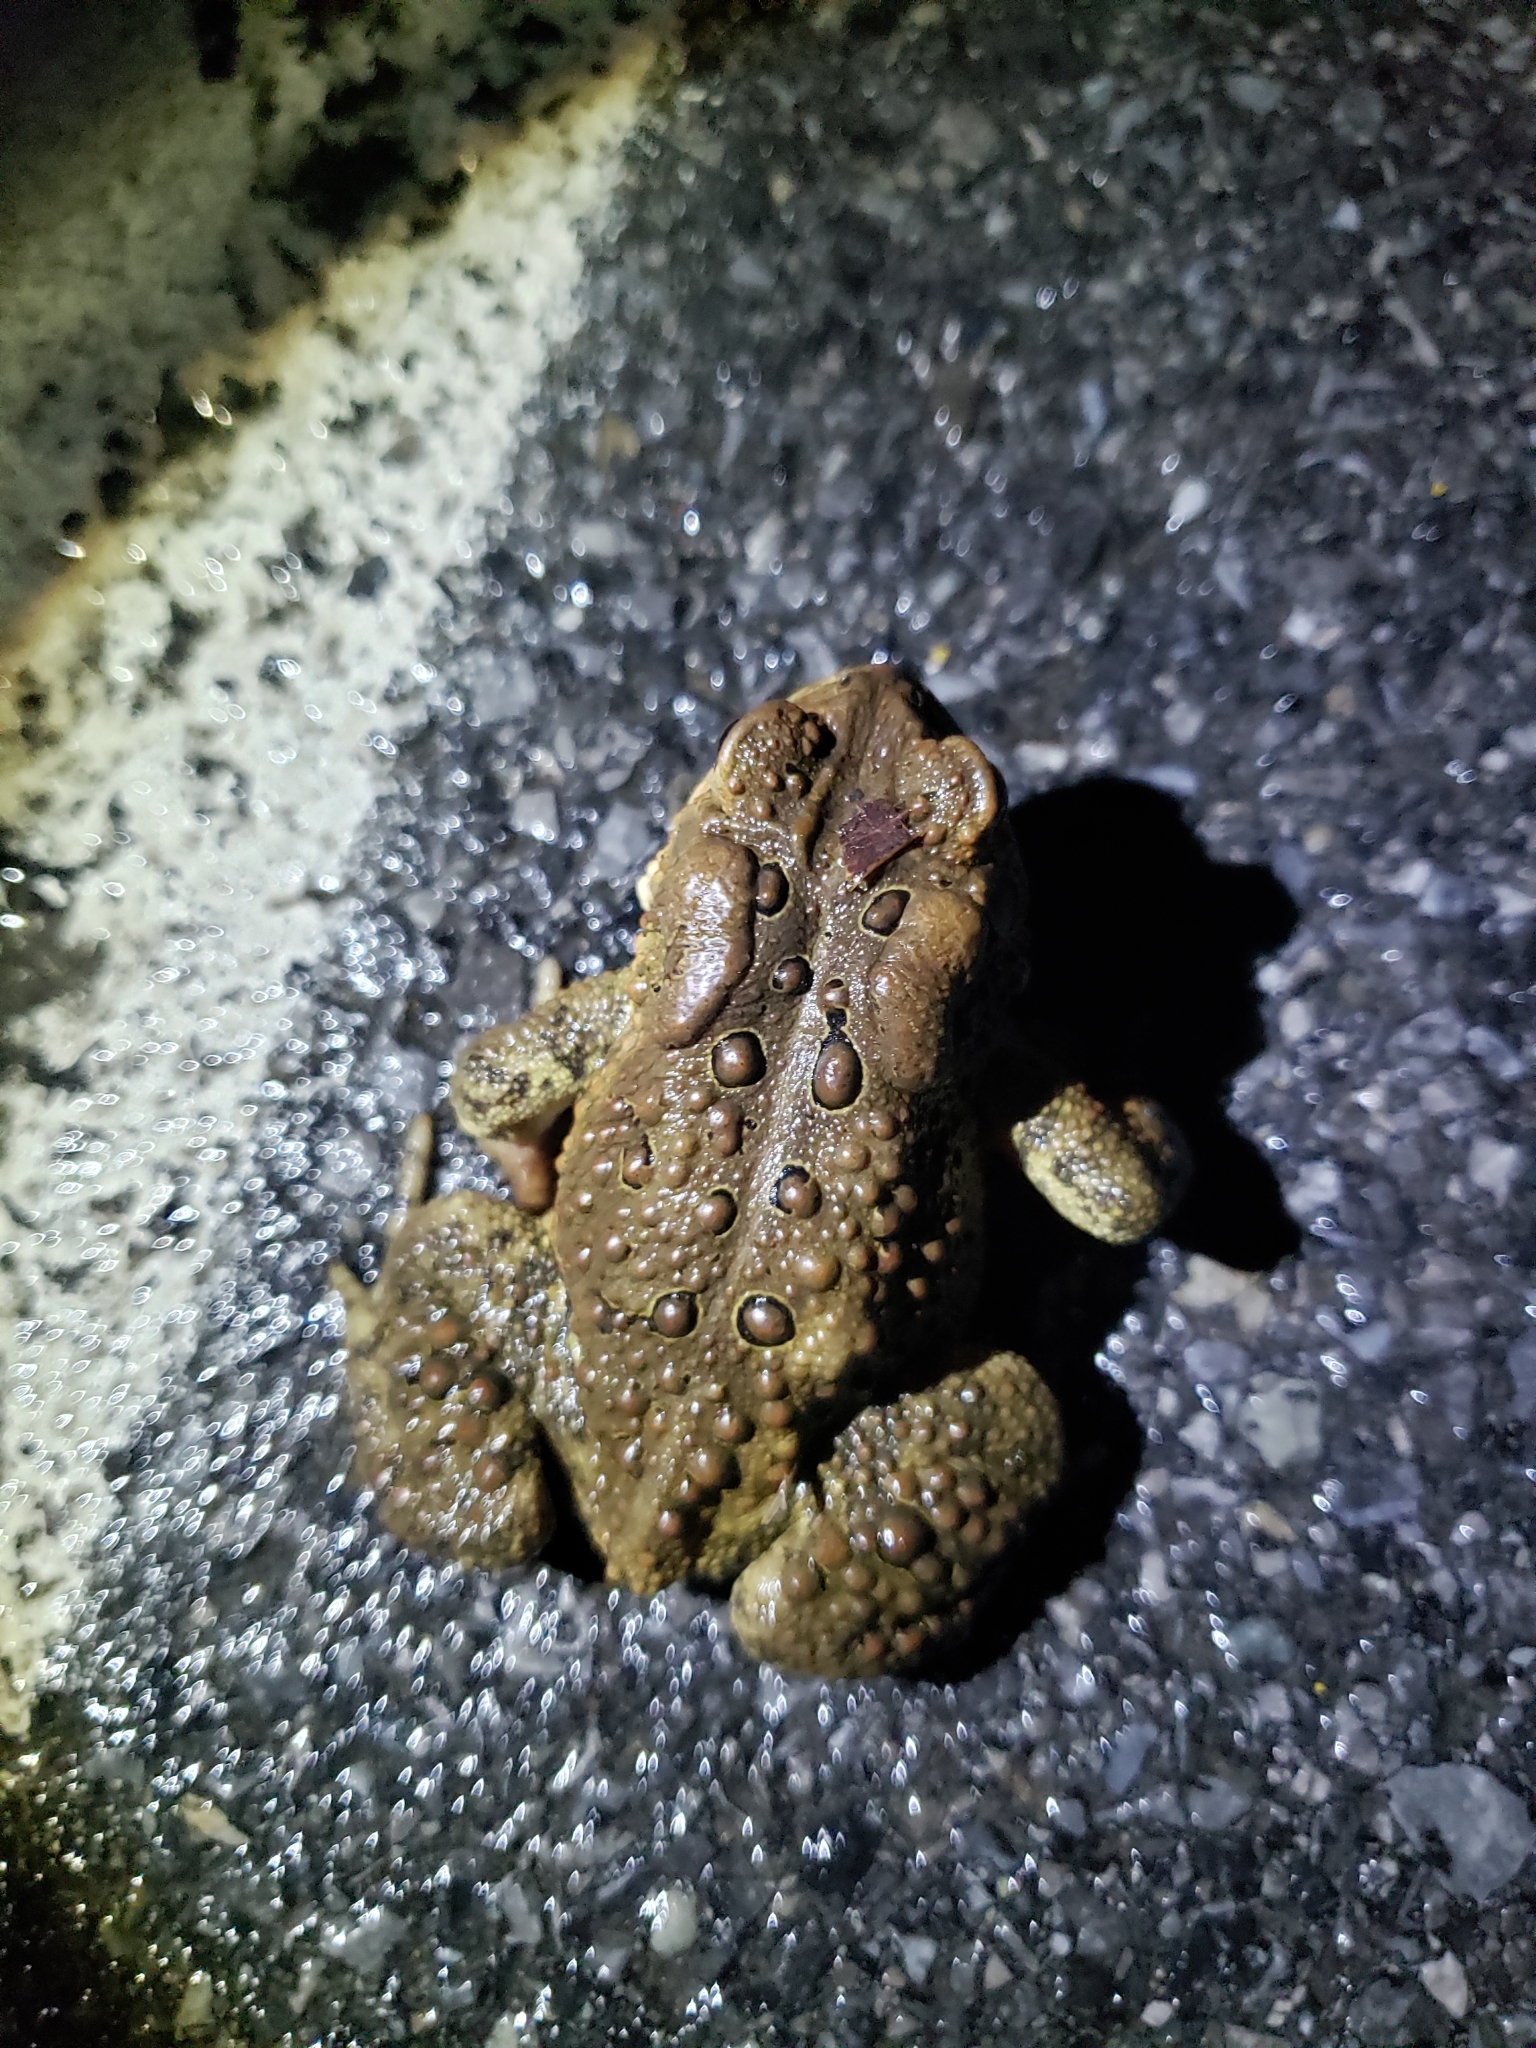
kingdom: Animalia
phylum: Chordata
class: Amphibia
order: Anura
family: Bufonidae
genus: Anaxyrus
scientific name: Anaxyrus americanus
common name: American toad
